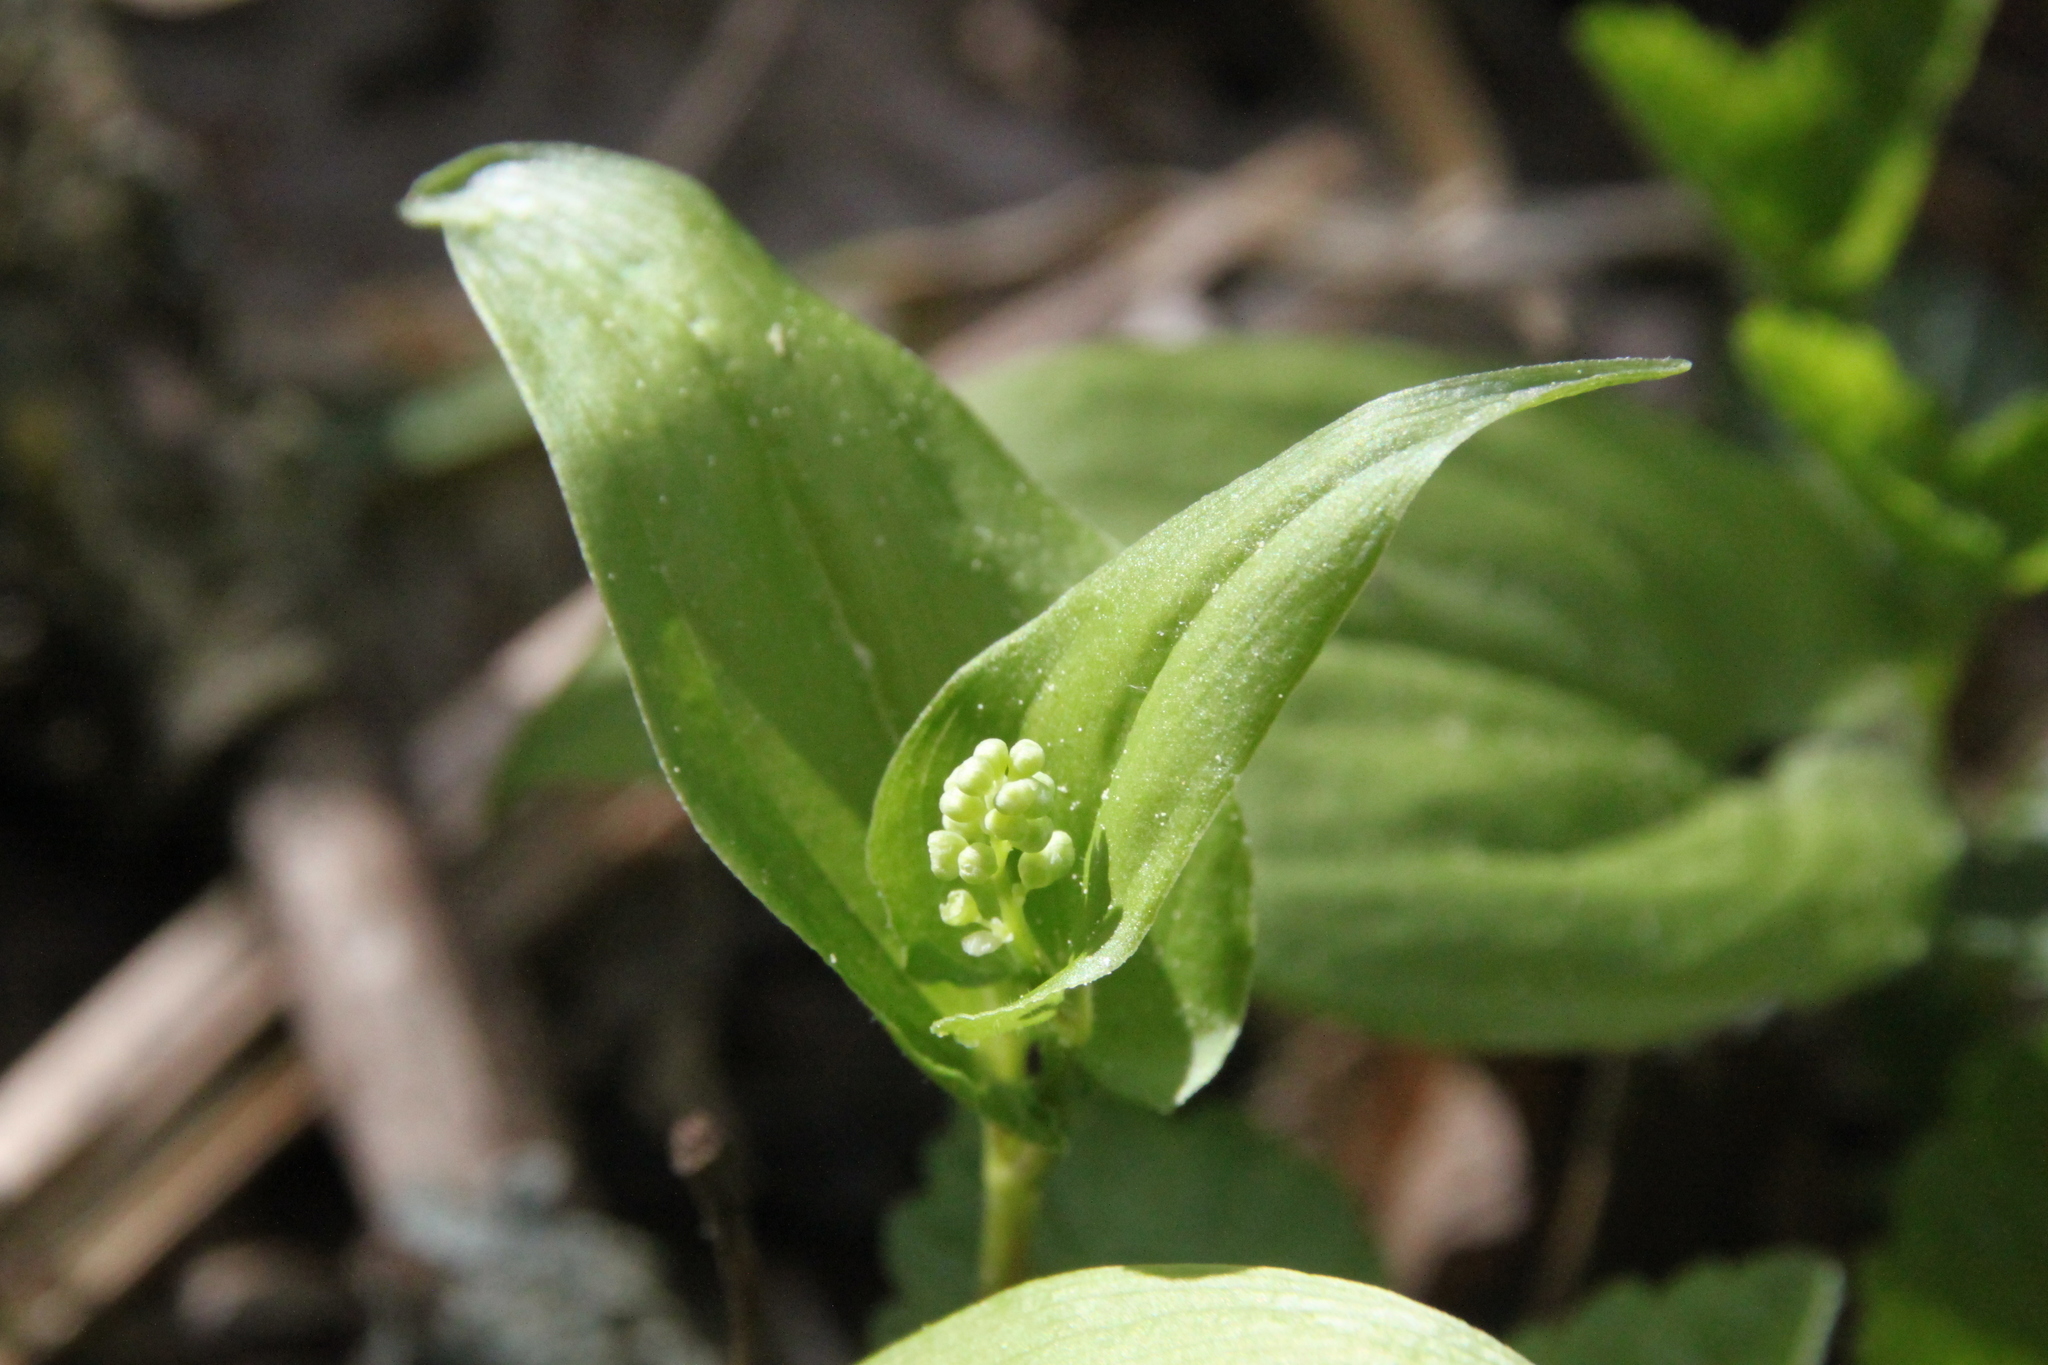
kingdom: Plantae
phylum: Tracheophyta
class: Liliopsida
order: Asparagales
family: Asparagaceae
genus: Maianthemum
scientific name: Maianthemum bifolium
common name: May lily
